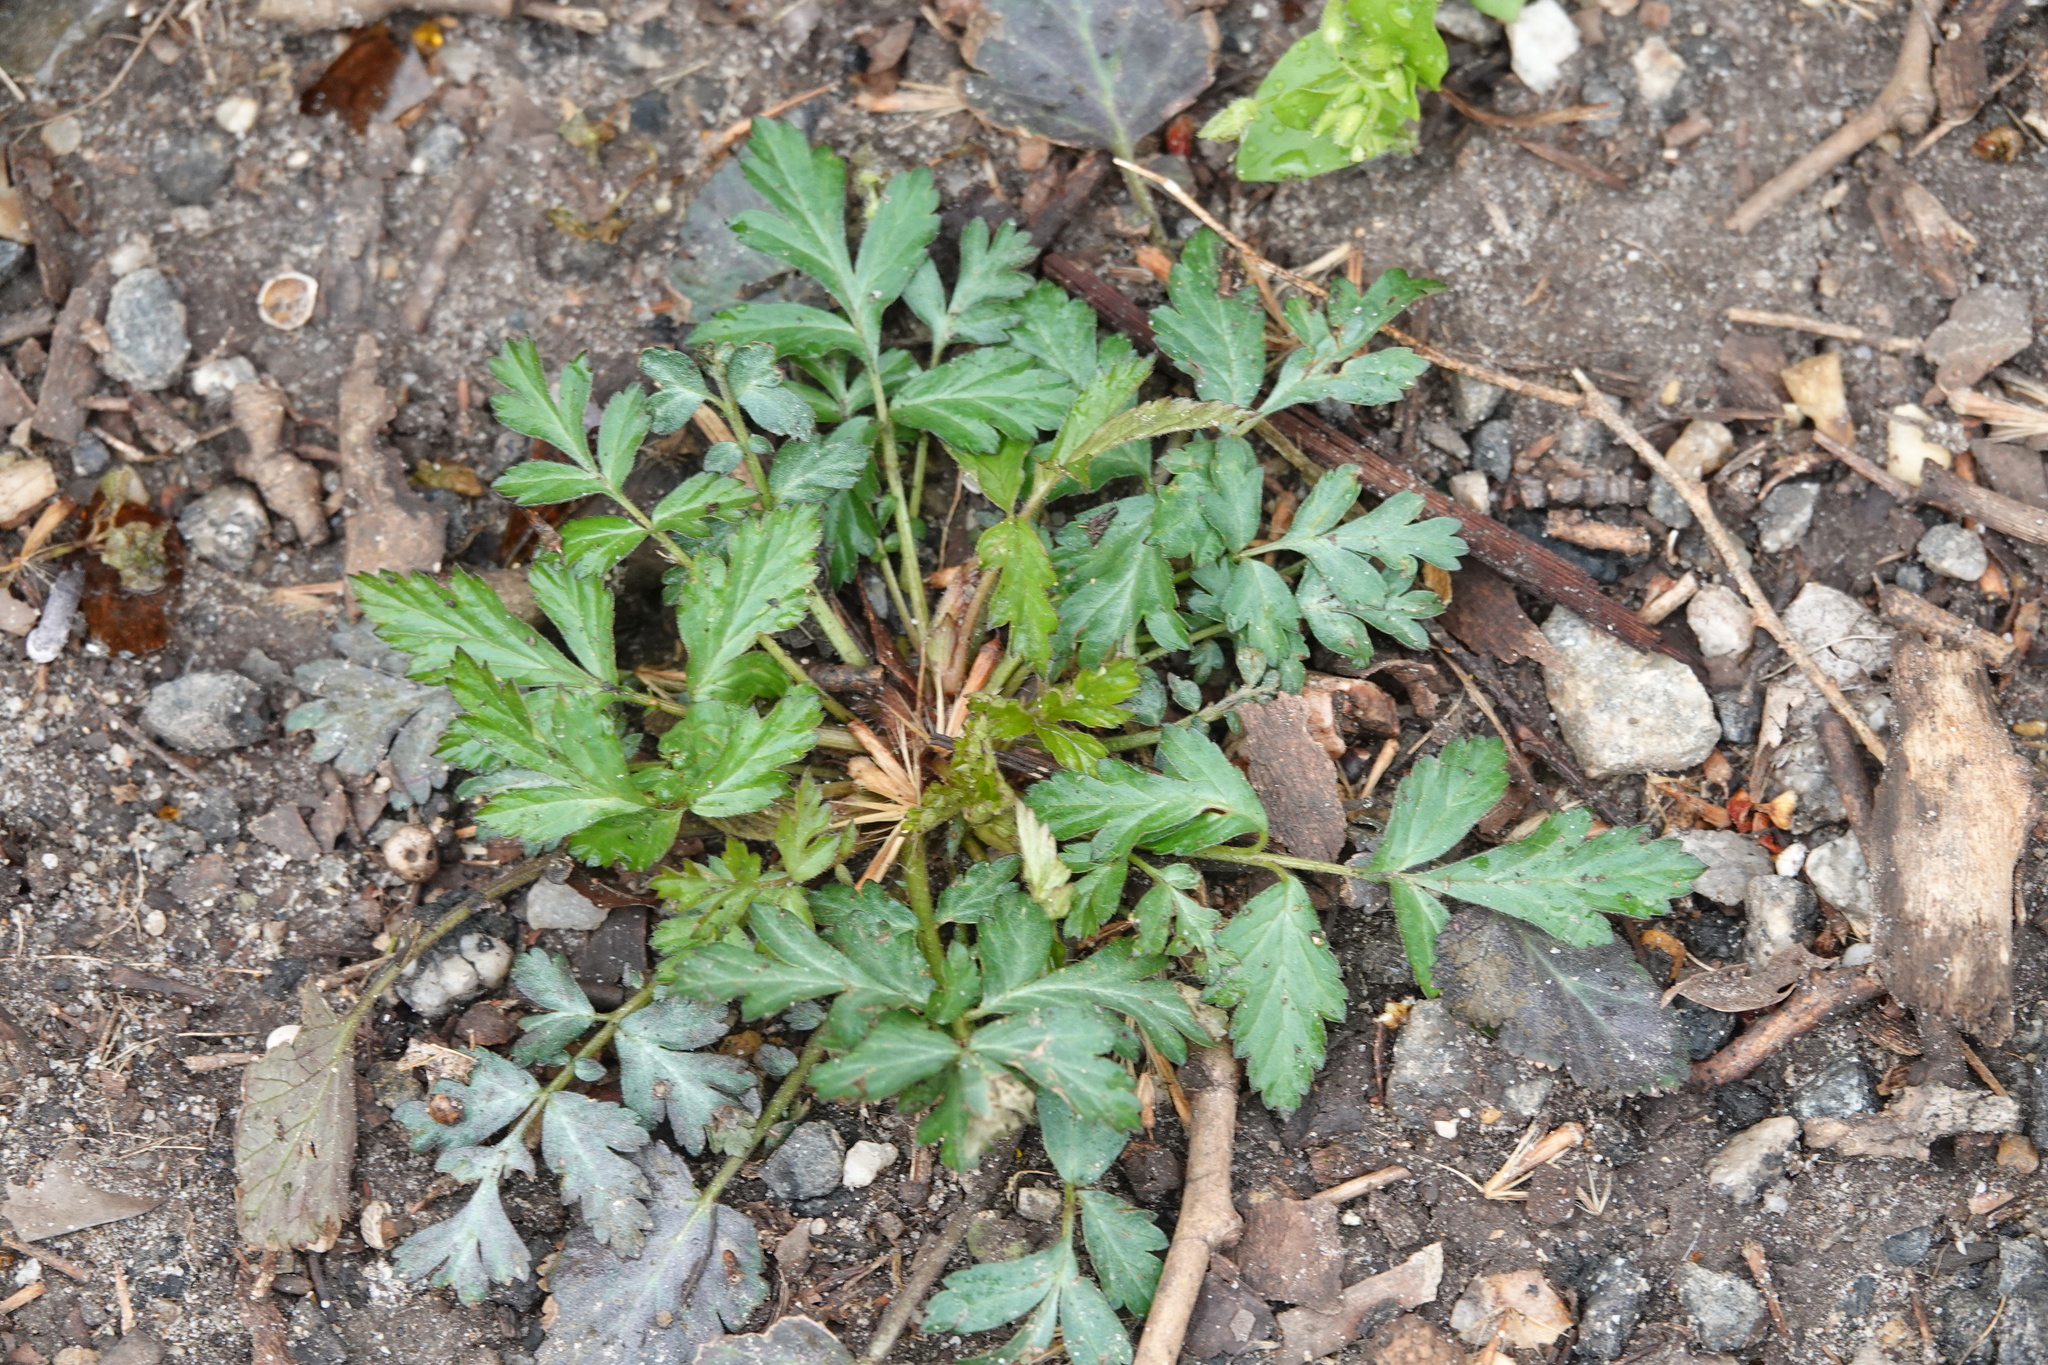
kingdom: Plantae
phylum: Tracheophyta
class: Magnoliopsida
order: Rosales
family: Rosaceae
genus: Geum
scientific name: Geum canadense
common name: White avens
